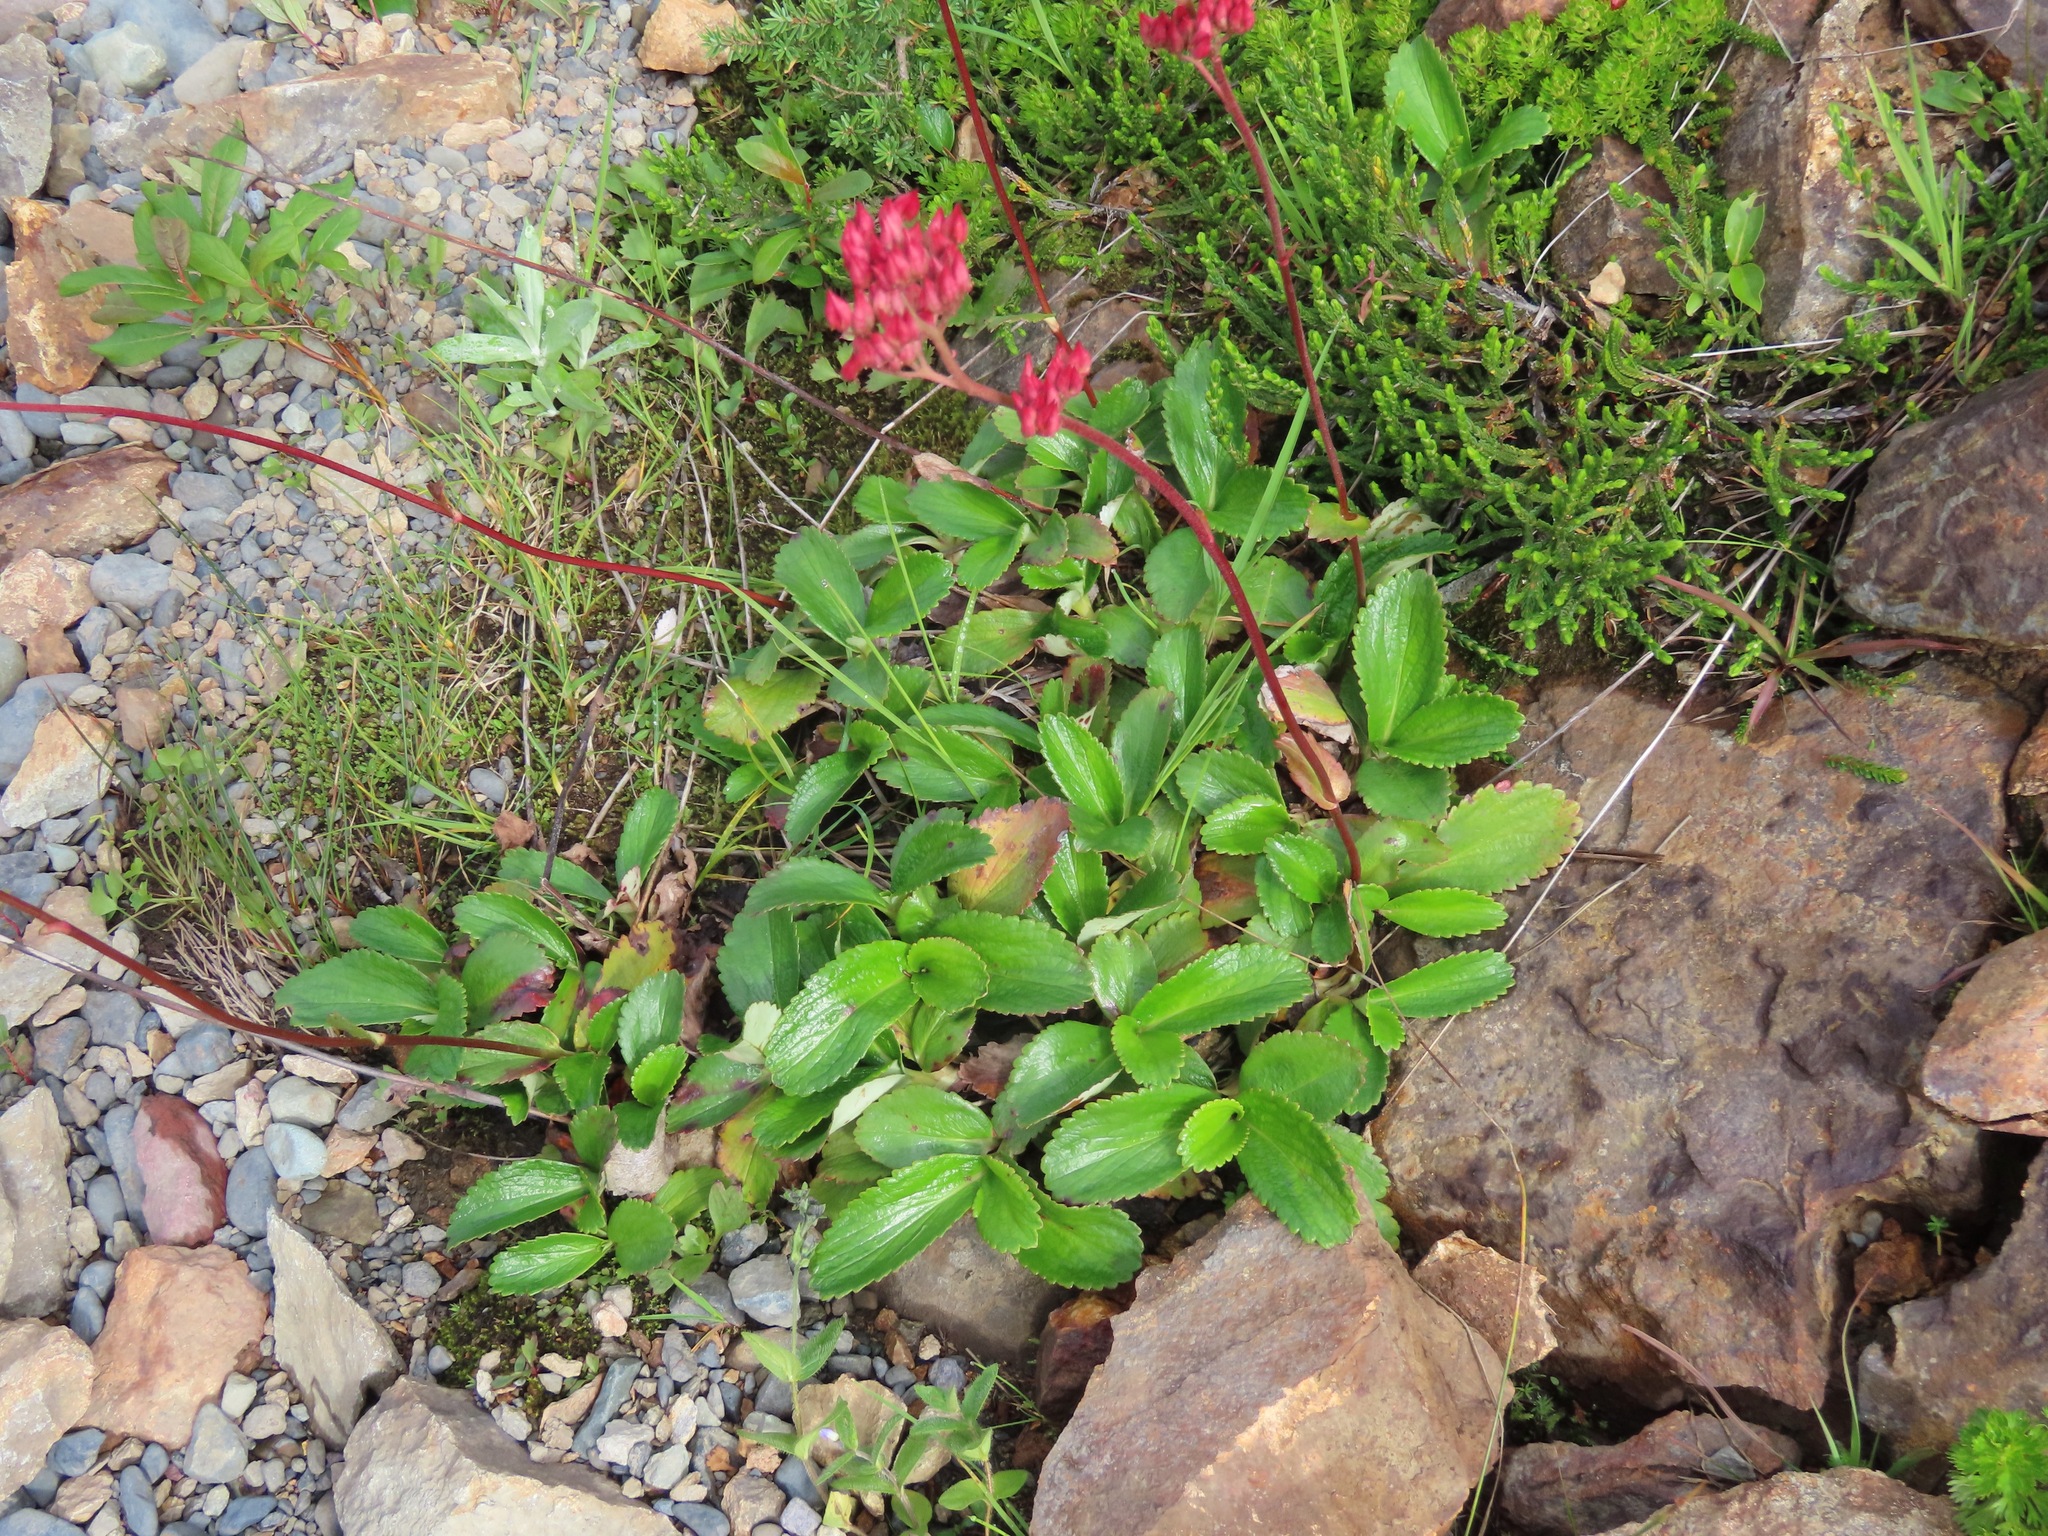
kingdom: Plantae
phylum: Tracheophyta
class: Magnoliopsida
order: Saxifragales
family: Saxifragaceae
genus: Leptarrhena
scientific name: Leptarrhena pyrolifolia
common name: Leatherleaf-saxifrage
